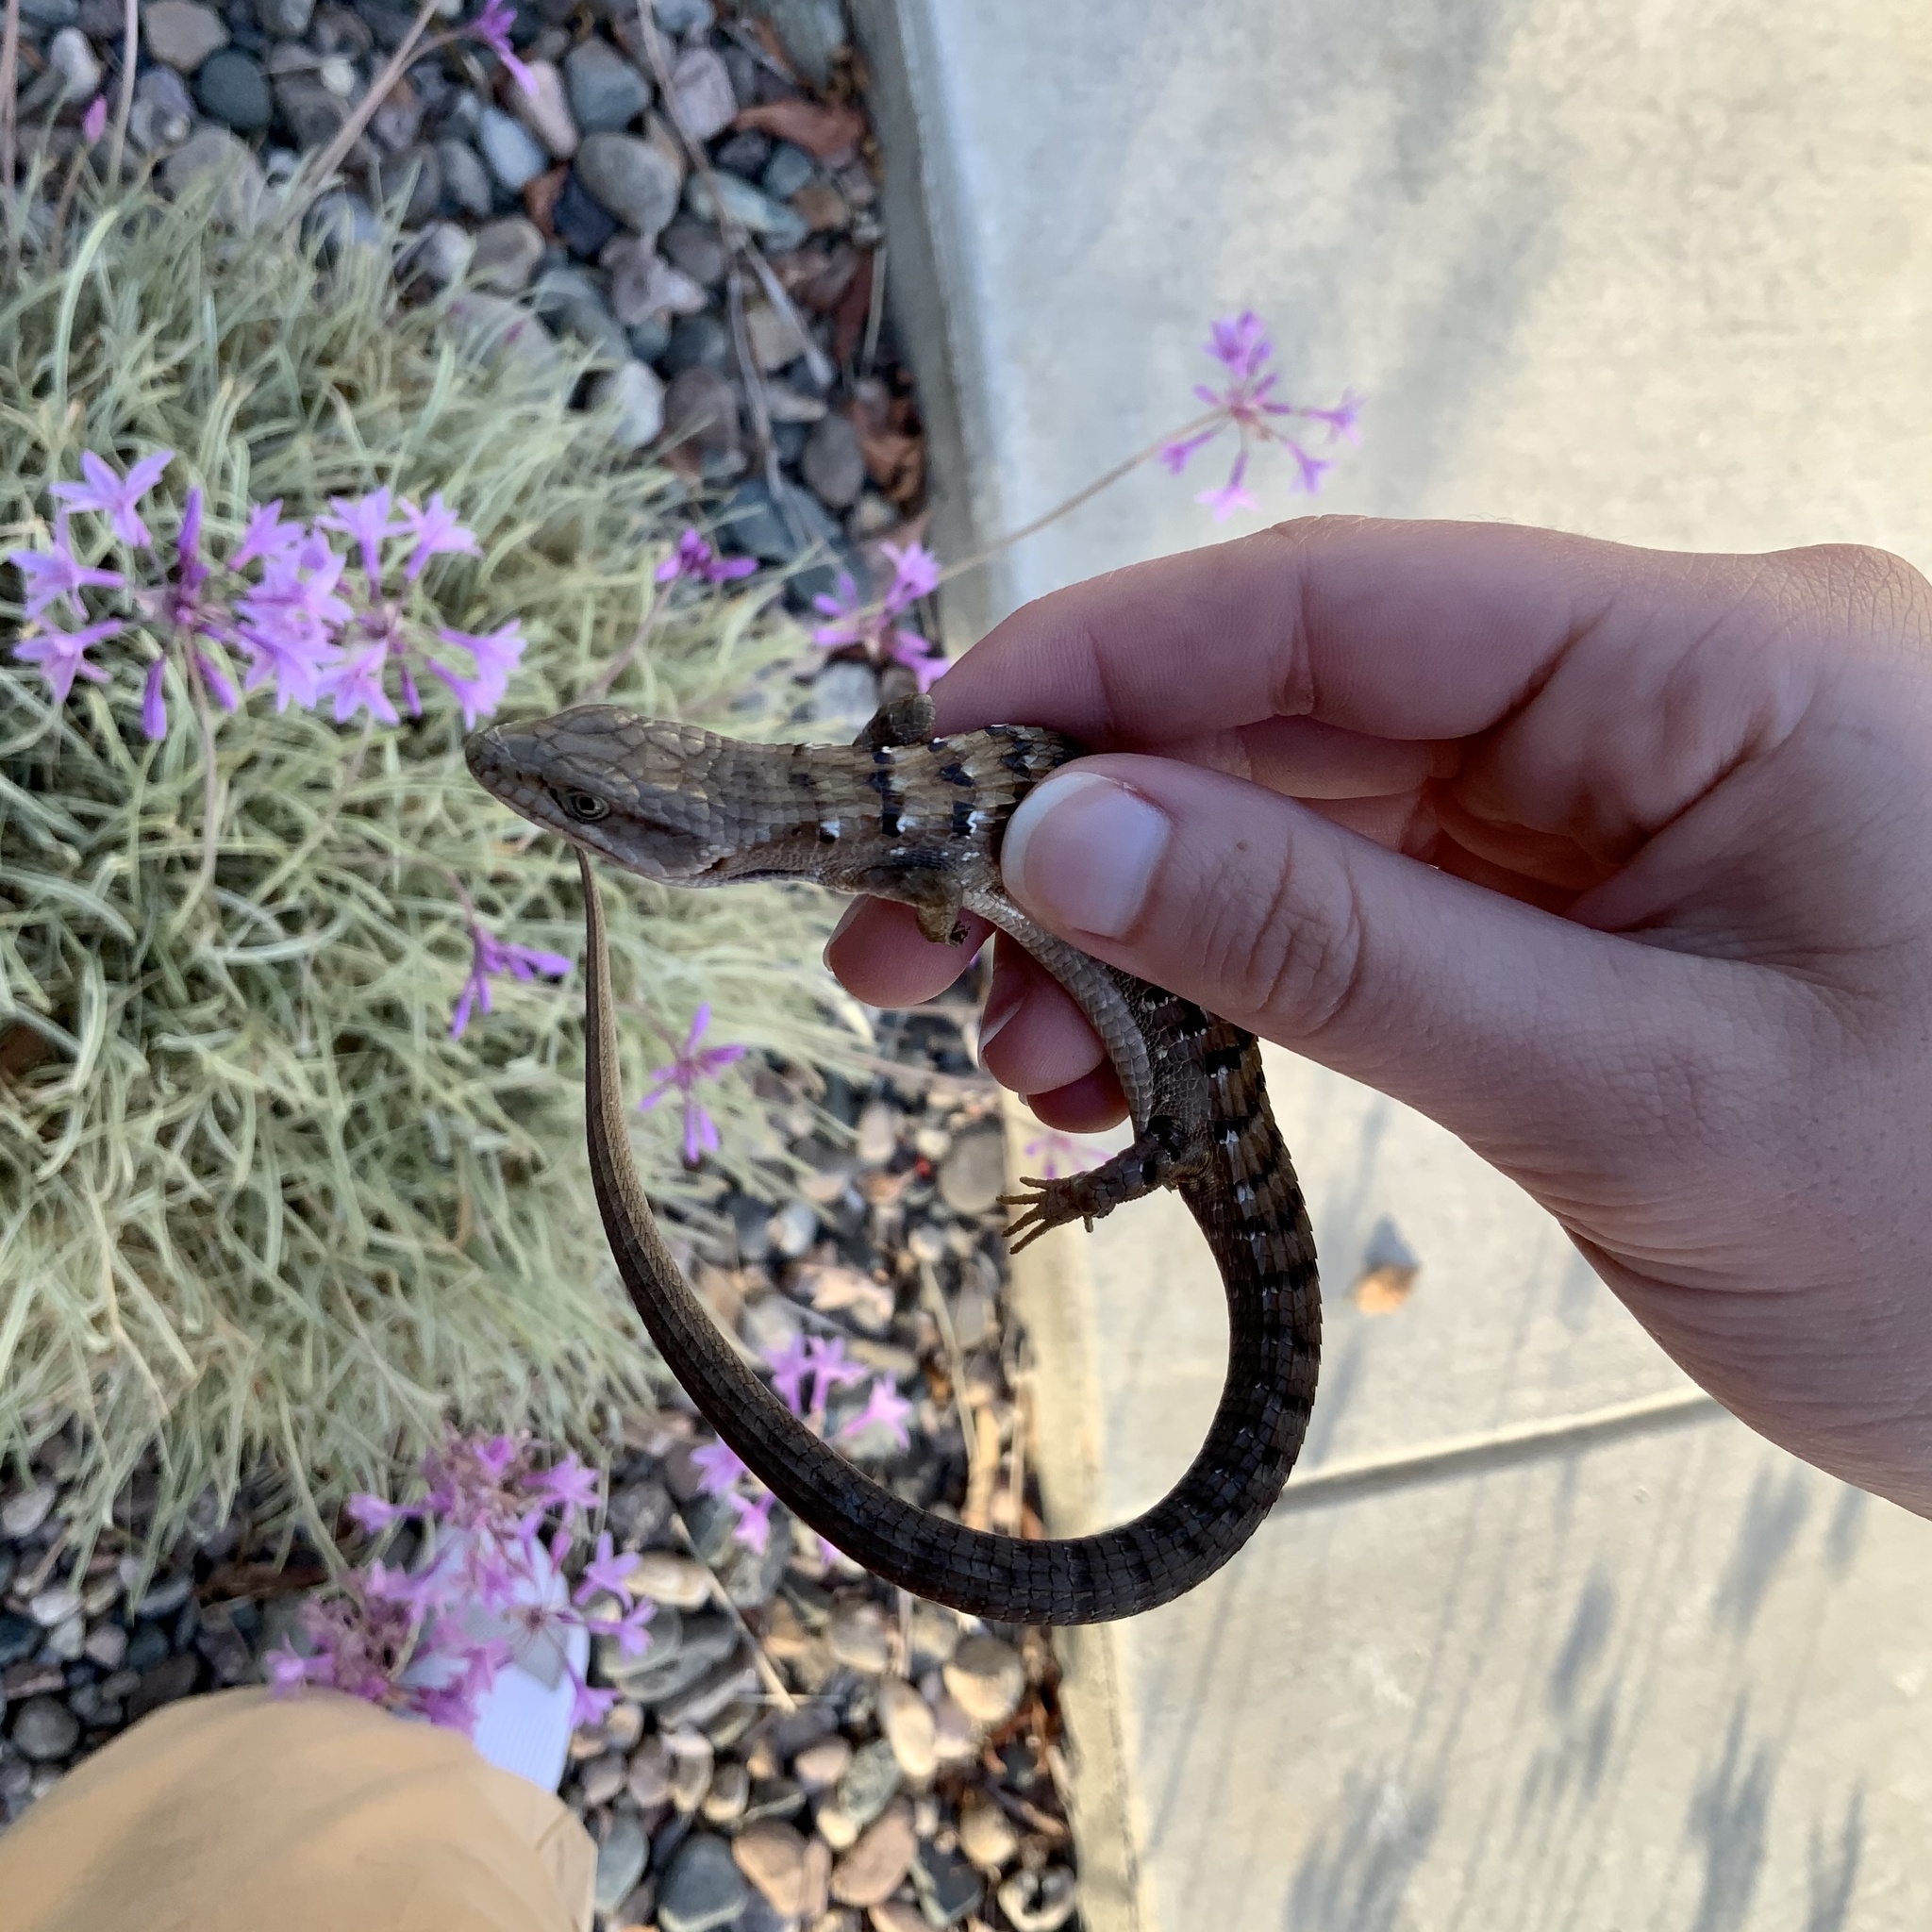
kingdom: Animalia
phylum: Chordata
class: Squamata
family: Anguidae
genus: Elgaria
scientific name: Elgaria multicarinata
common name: Southern alligator lizard
